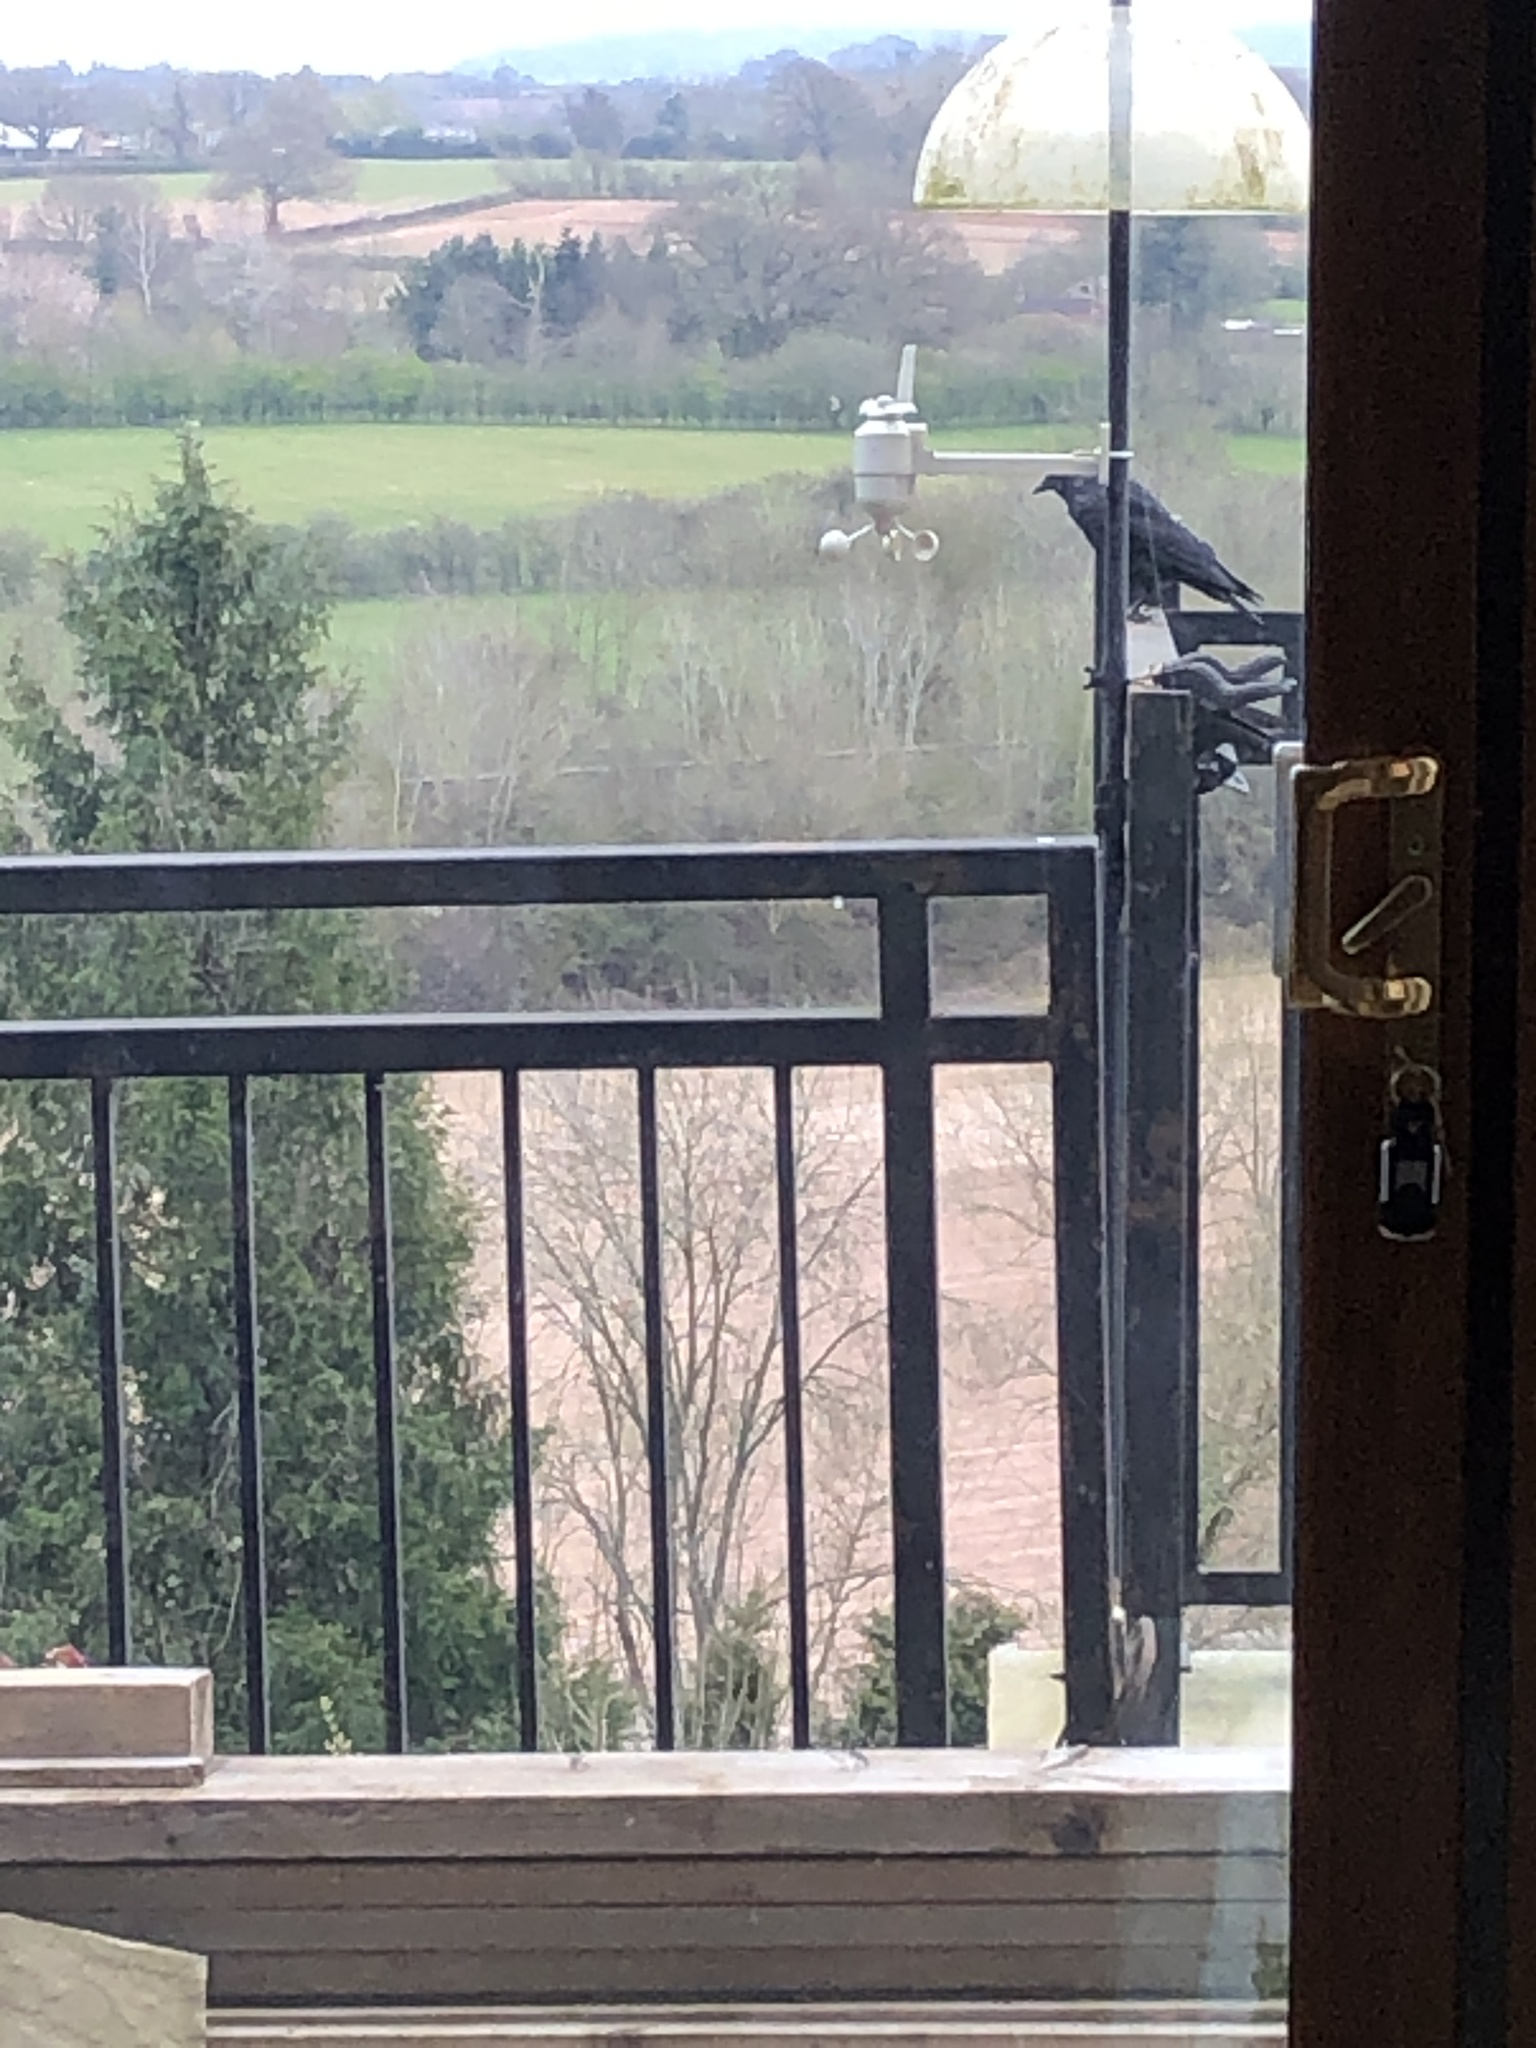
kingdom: Animalia
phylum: Chordata
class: Aves
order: Passeriformes
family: Corvidae
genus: Coloeus
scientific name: Coloeus monedula
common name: Western jackdaw
